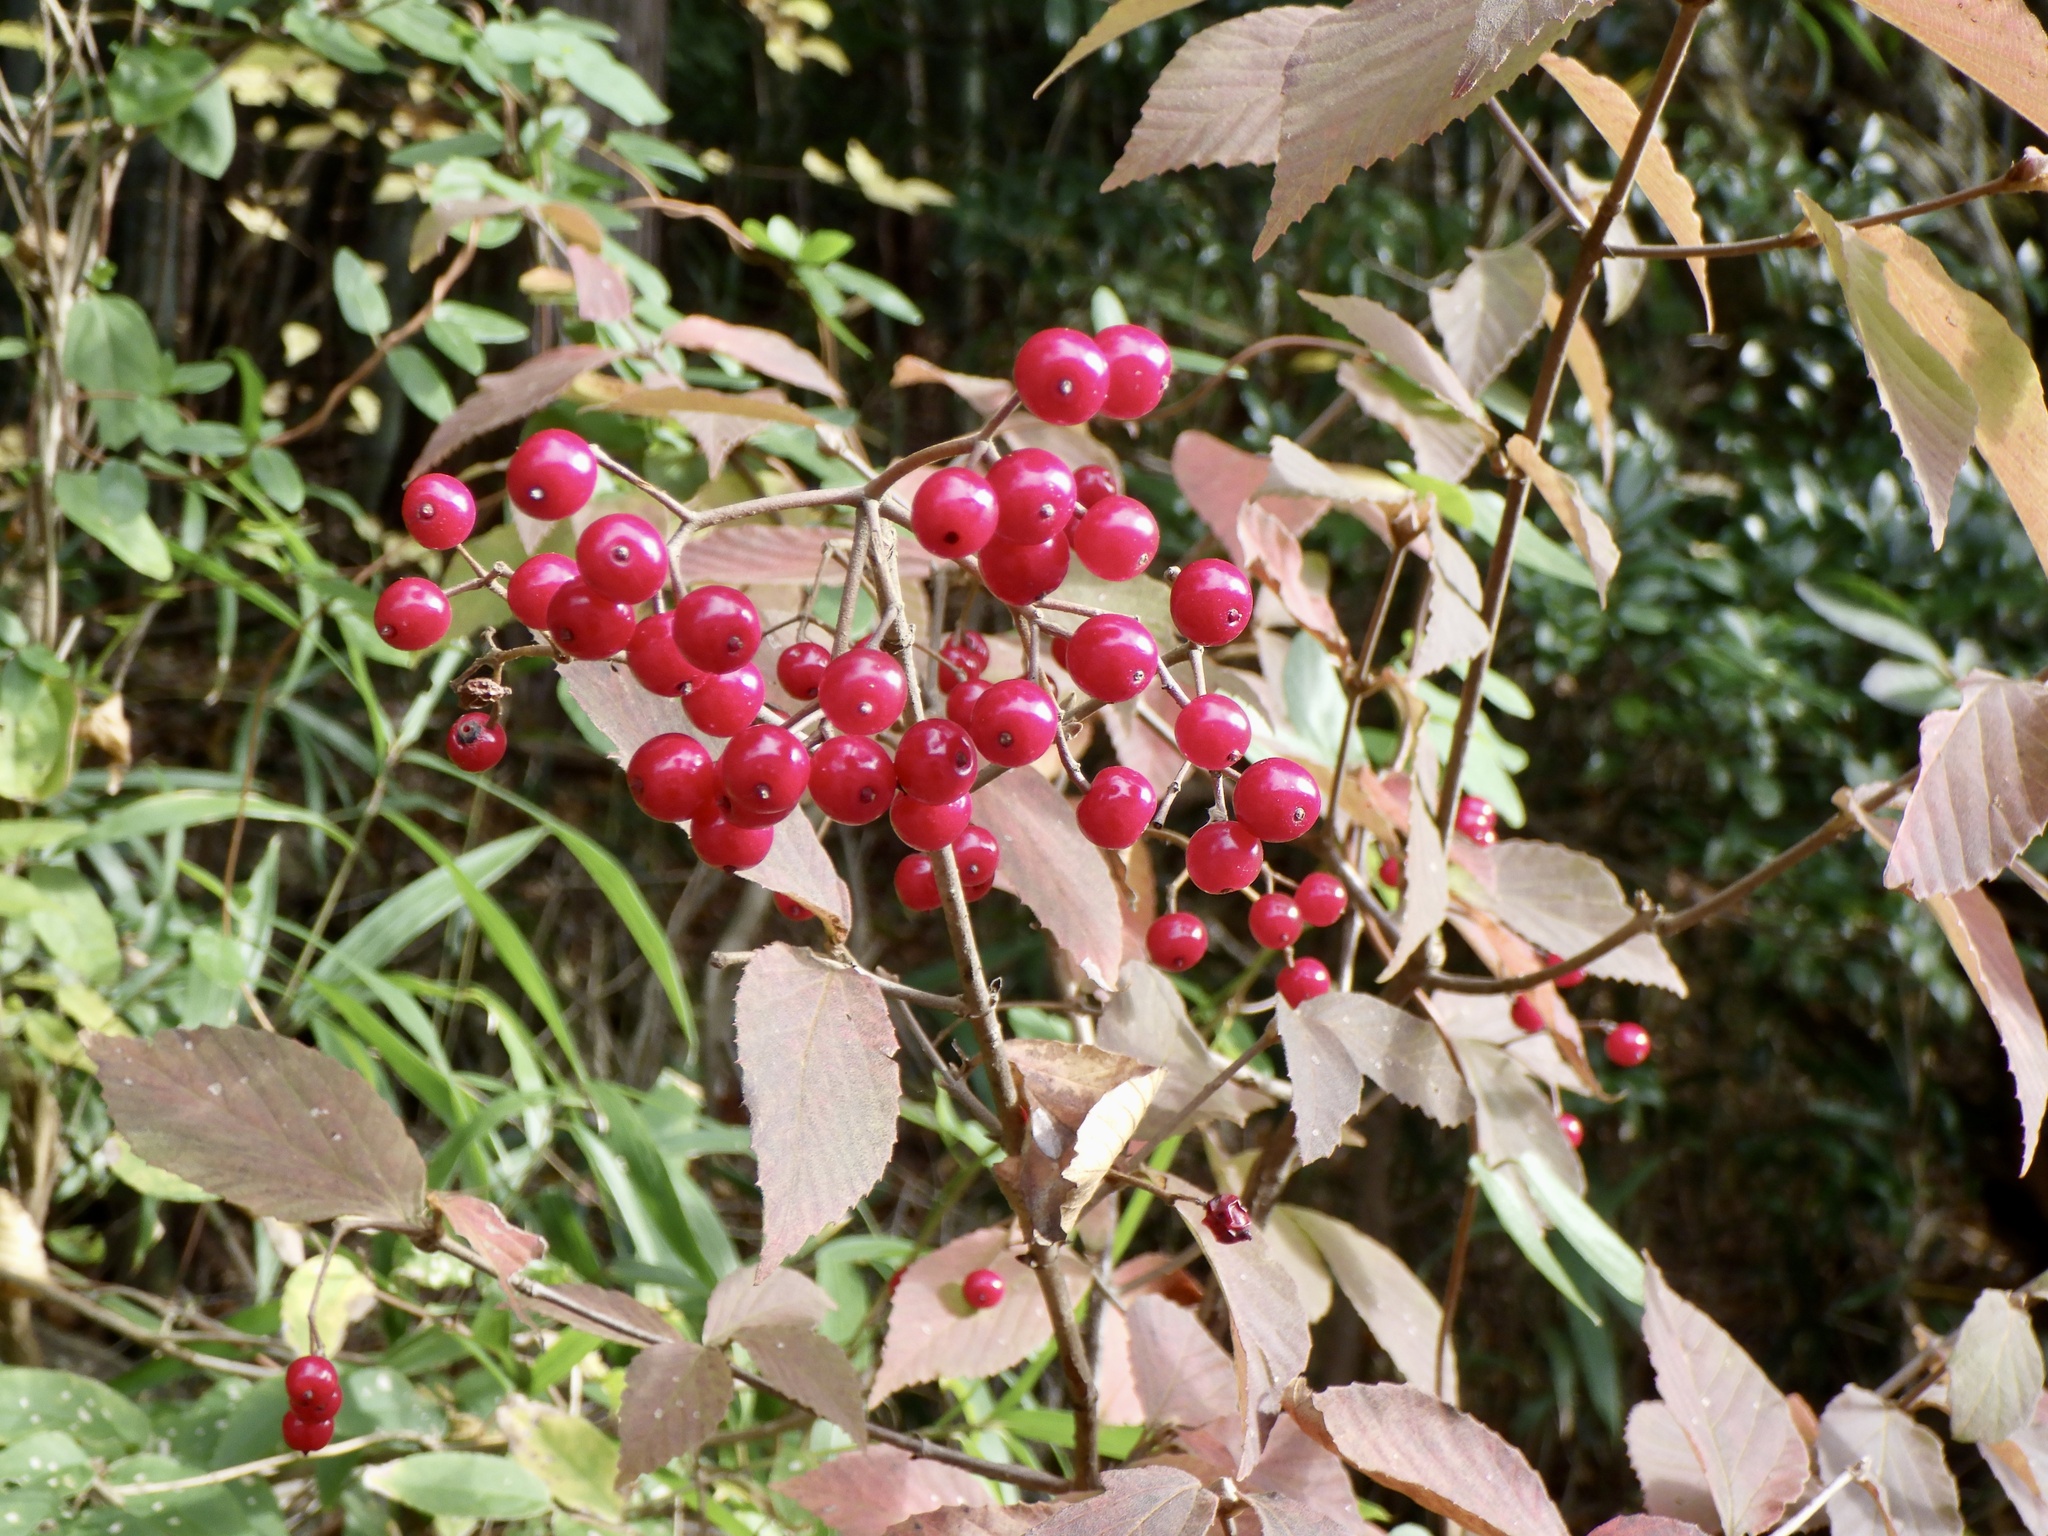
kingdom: Plantae
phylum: Tracheophyta
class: Magnoliopsida
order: Dipsacales
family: Viburnaceae
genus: Viburnum
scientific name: Viburnum erosum
